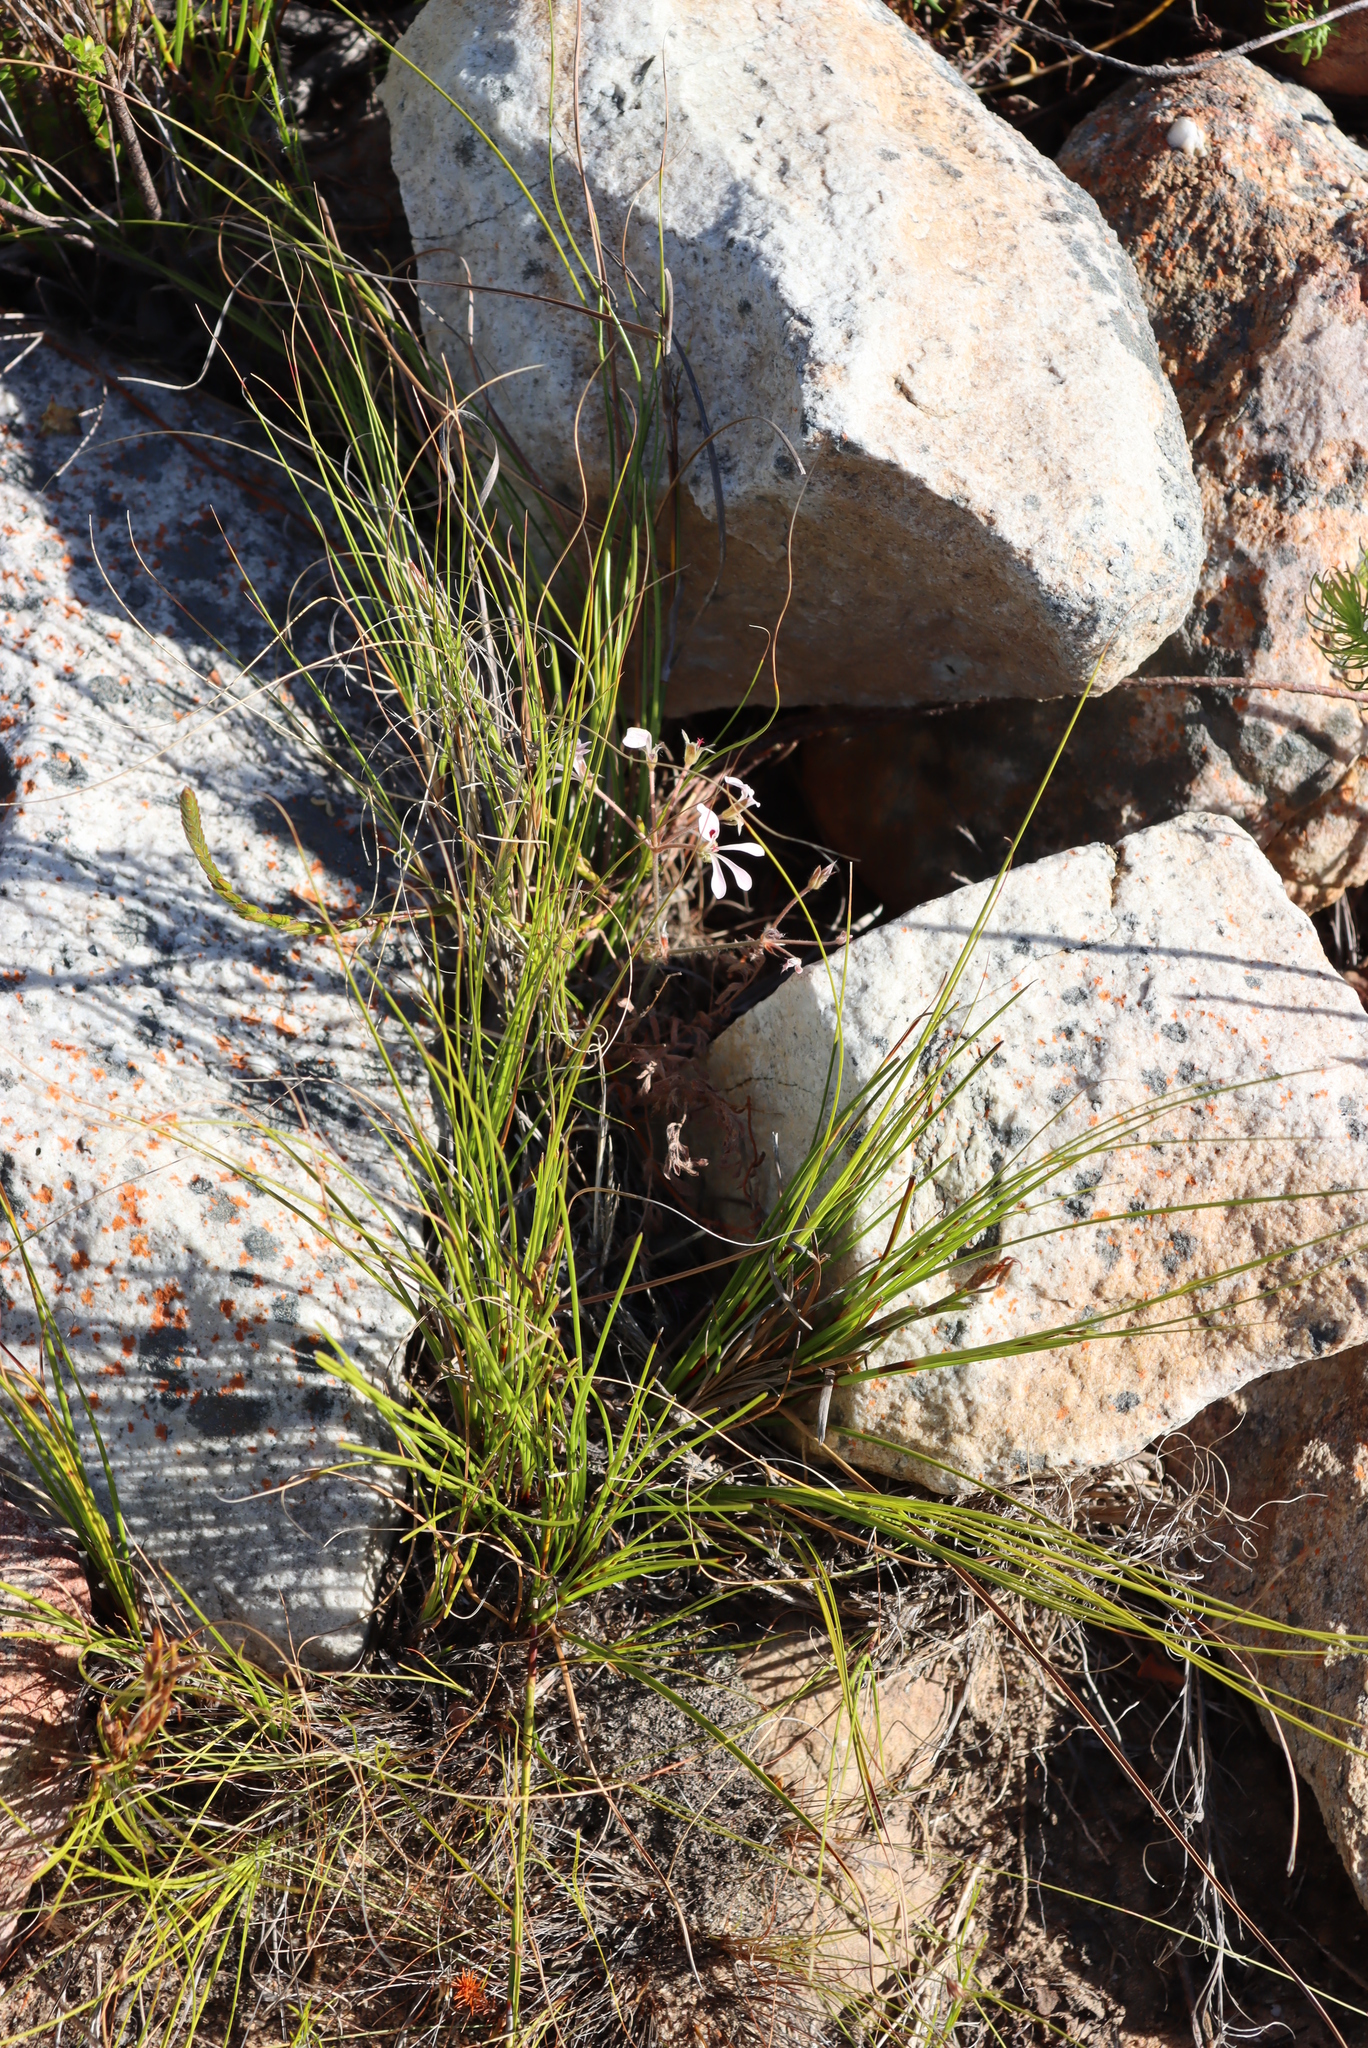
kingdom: Plantae
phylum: Tracheophyta
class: Magnoliopsida
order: Geraniales
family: Geraniaceae
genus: Pelargonium
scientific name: Pelargonium pinnatum
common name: Pinnated pelargonium
